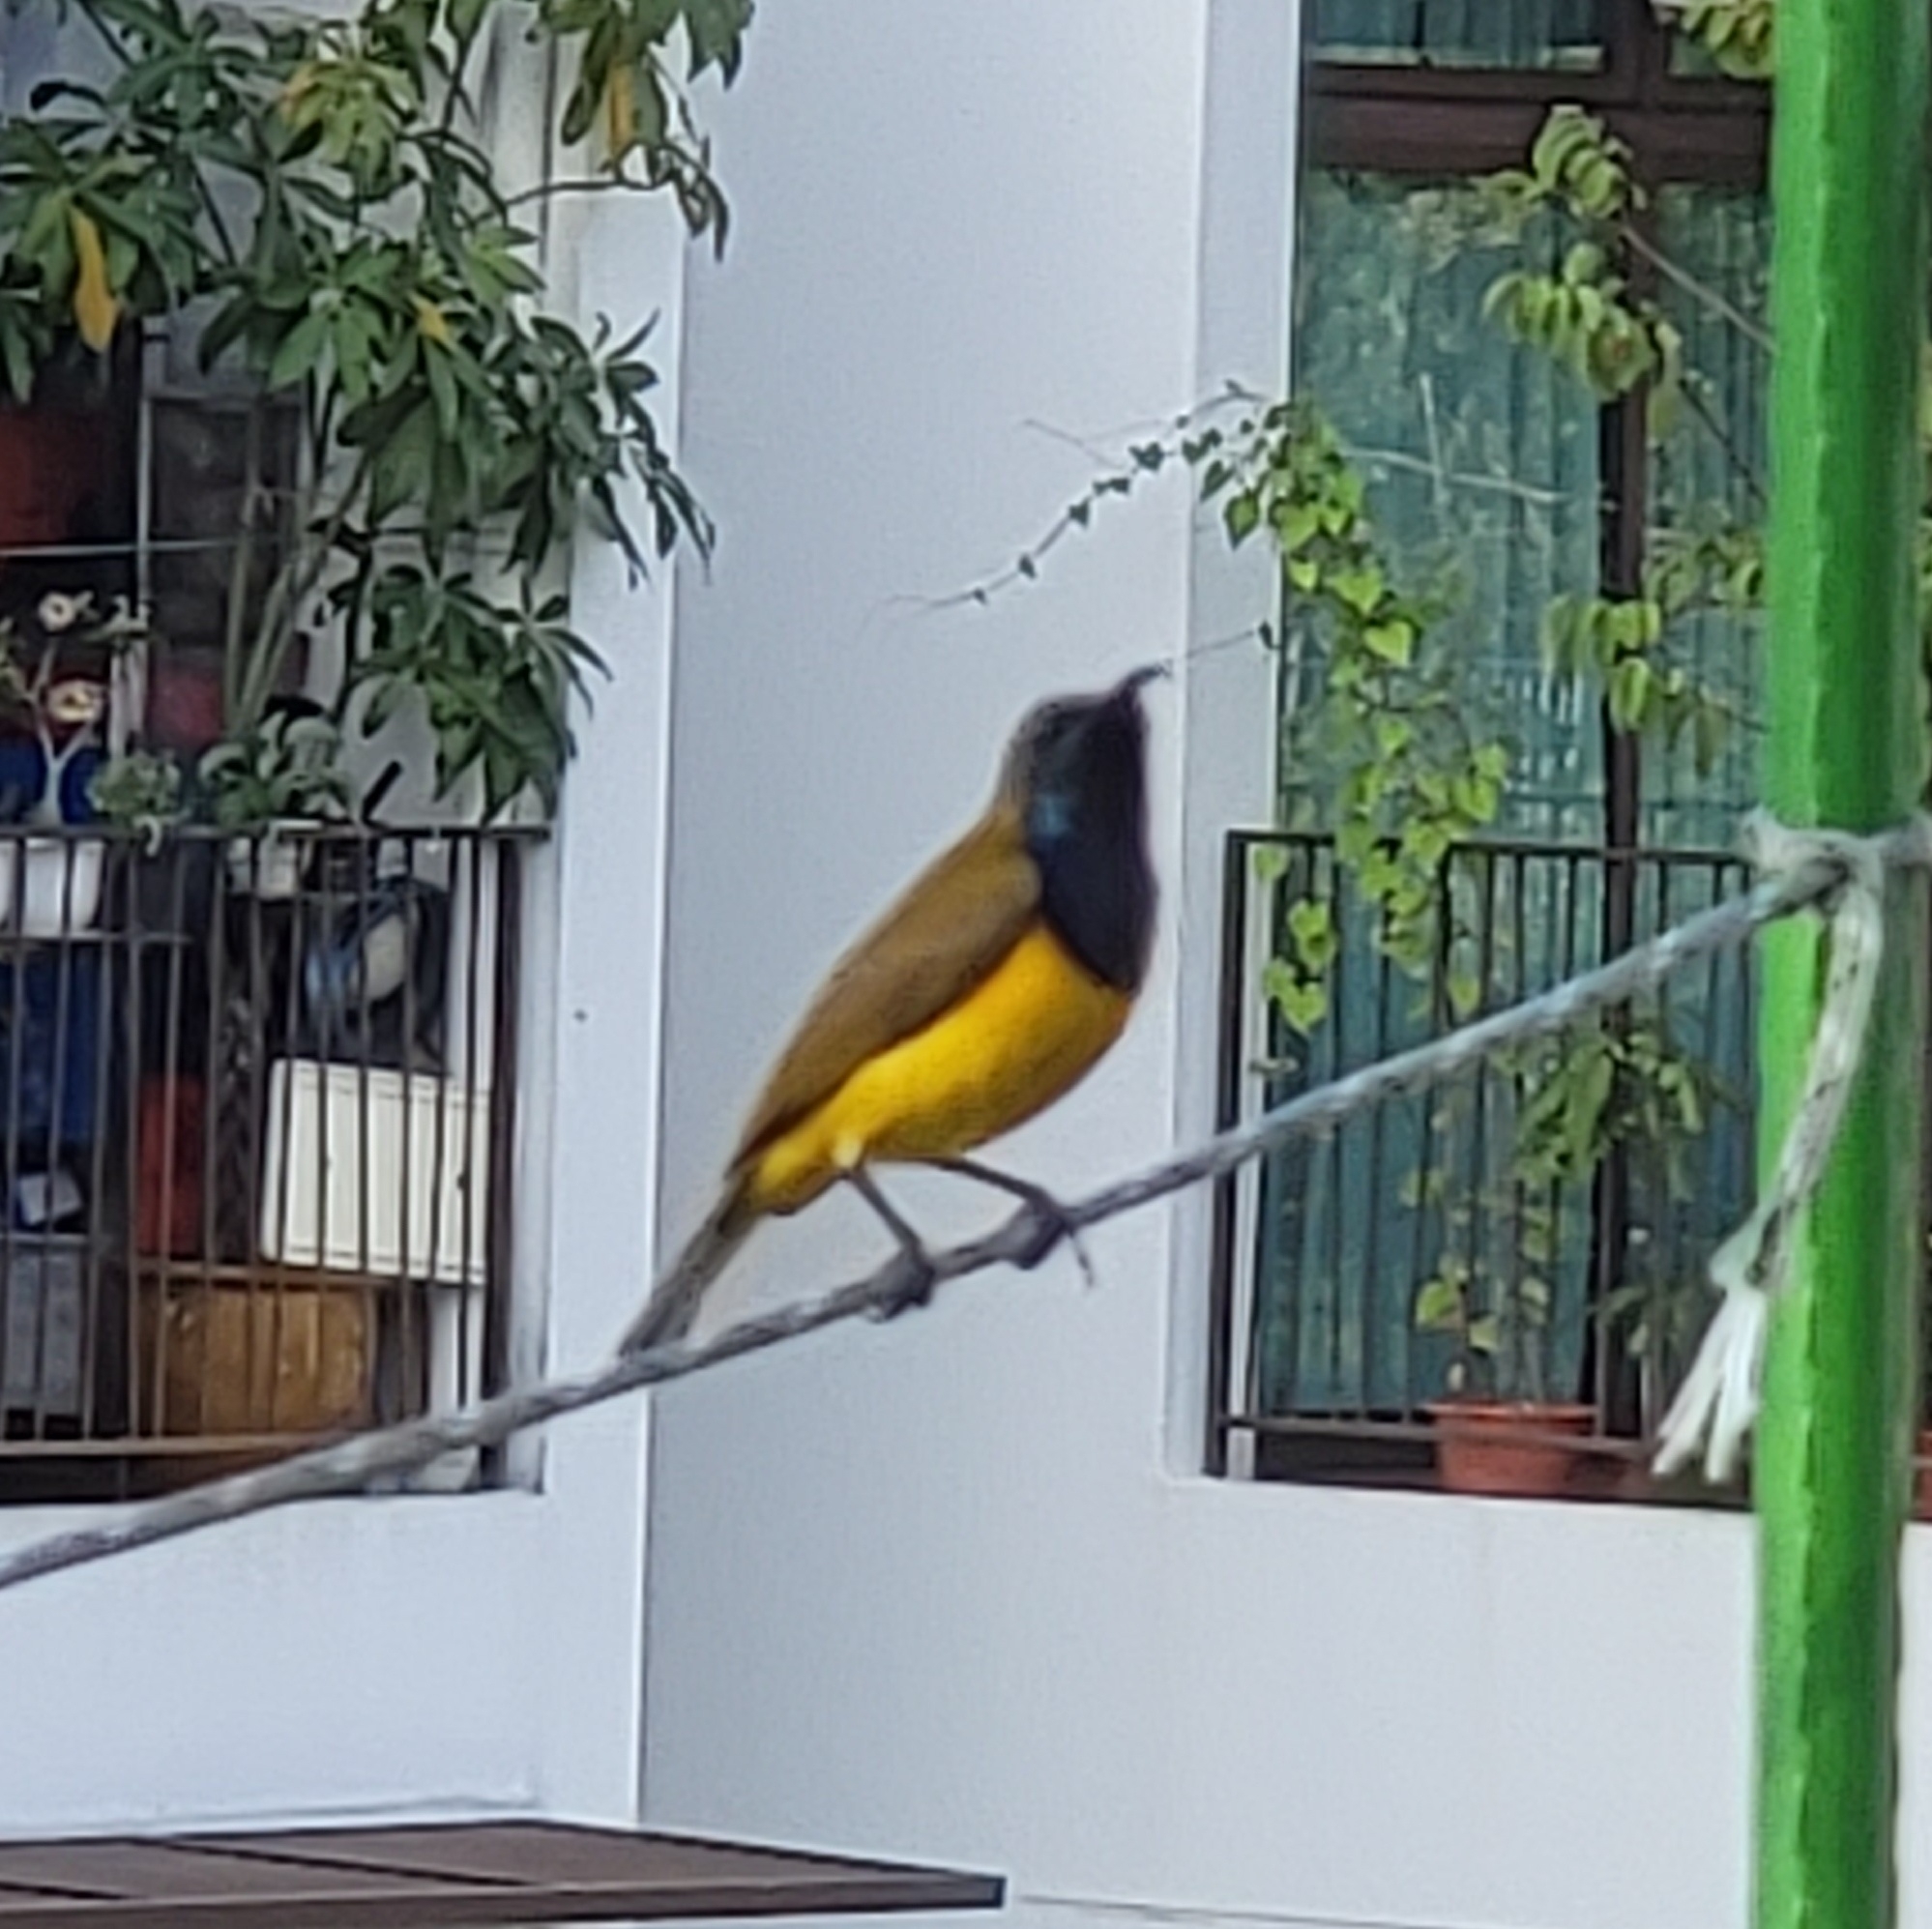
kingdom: Animalia
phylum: Chordata
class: Aves
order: Passeriformes
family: Nectariniidae
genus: Cinnyris
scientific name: Cinnyris
